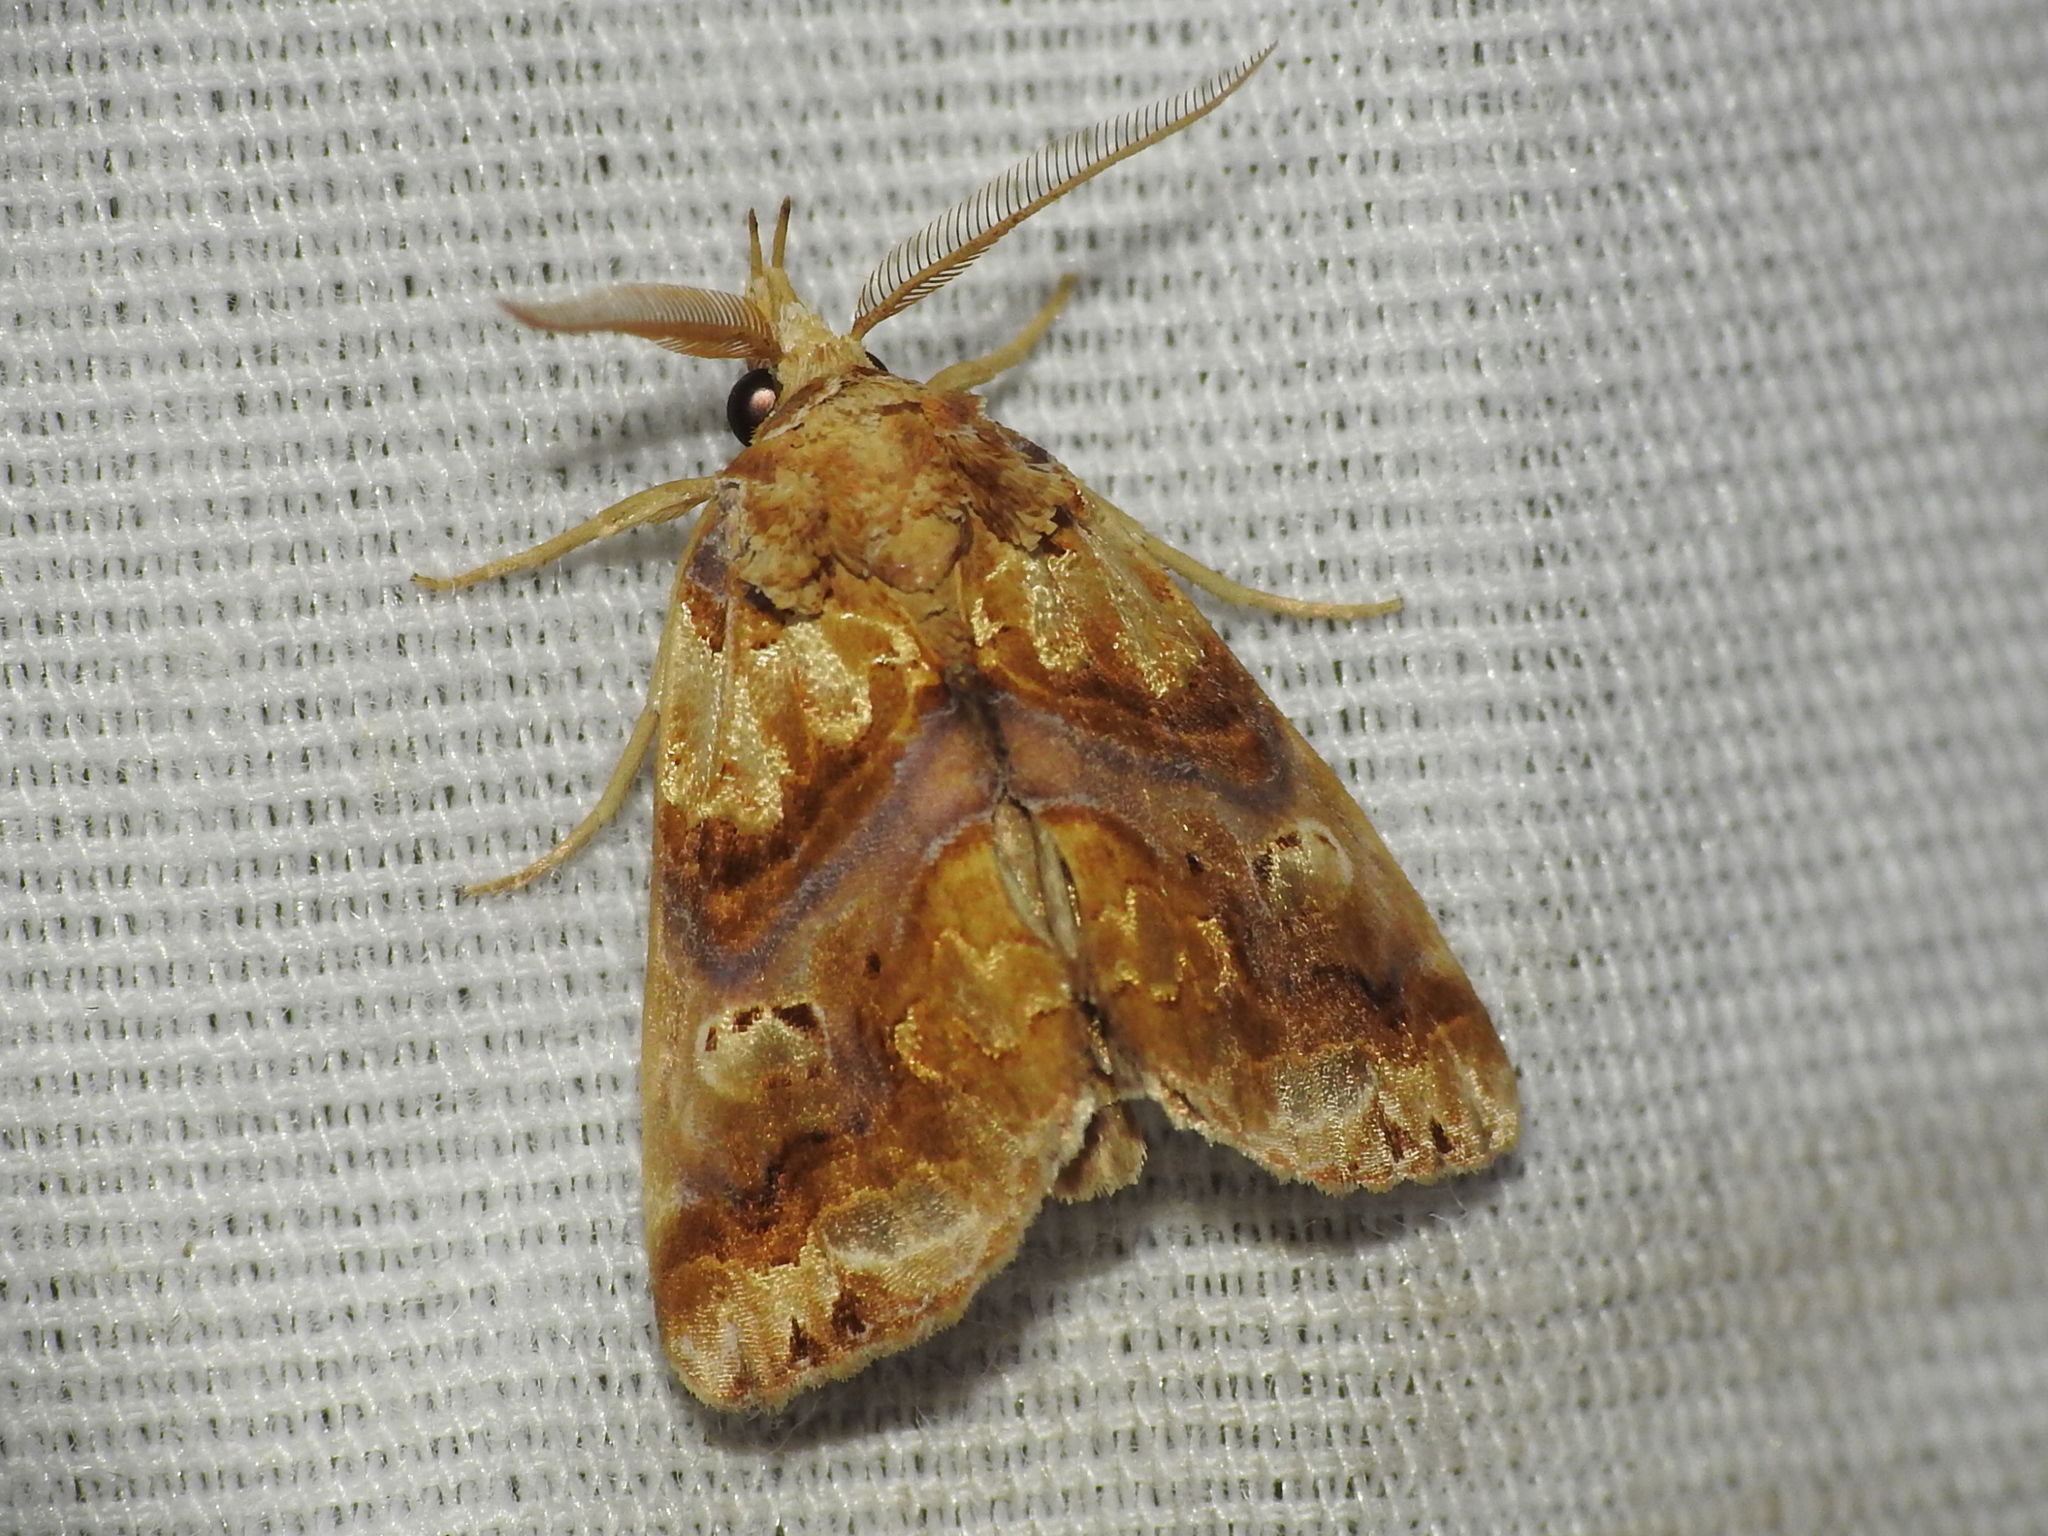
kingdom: Animalia
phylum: Arthropoda
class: Insecta
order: Lepidoptera
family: Erebidae
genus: Plusiodonta
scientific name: Plusiodonta compressipalpis
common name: Moonseed moth
